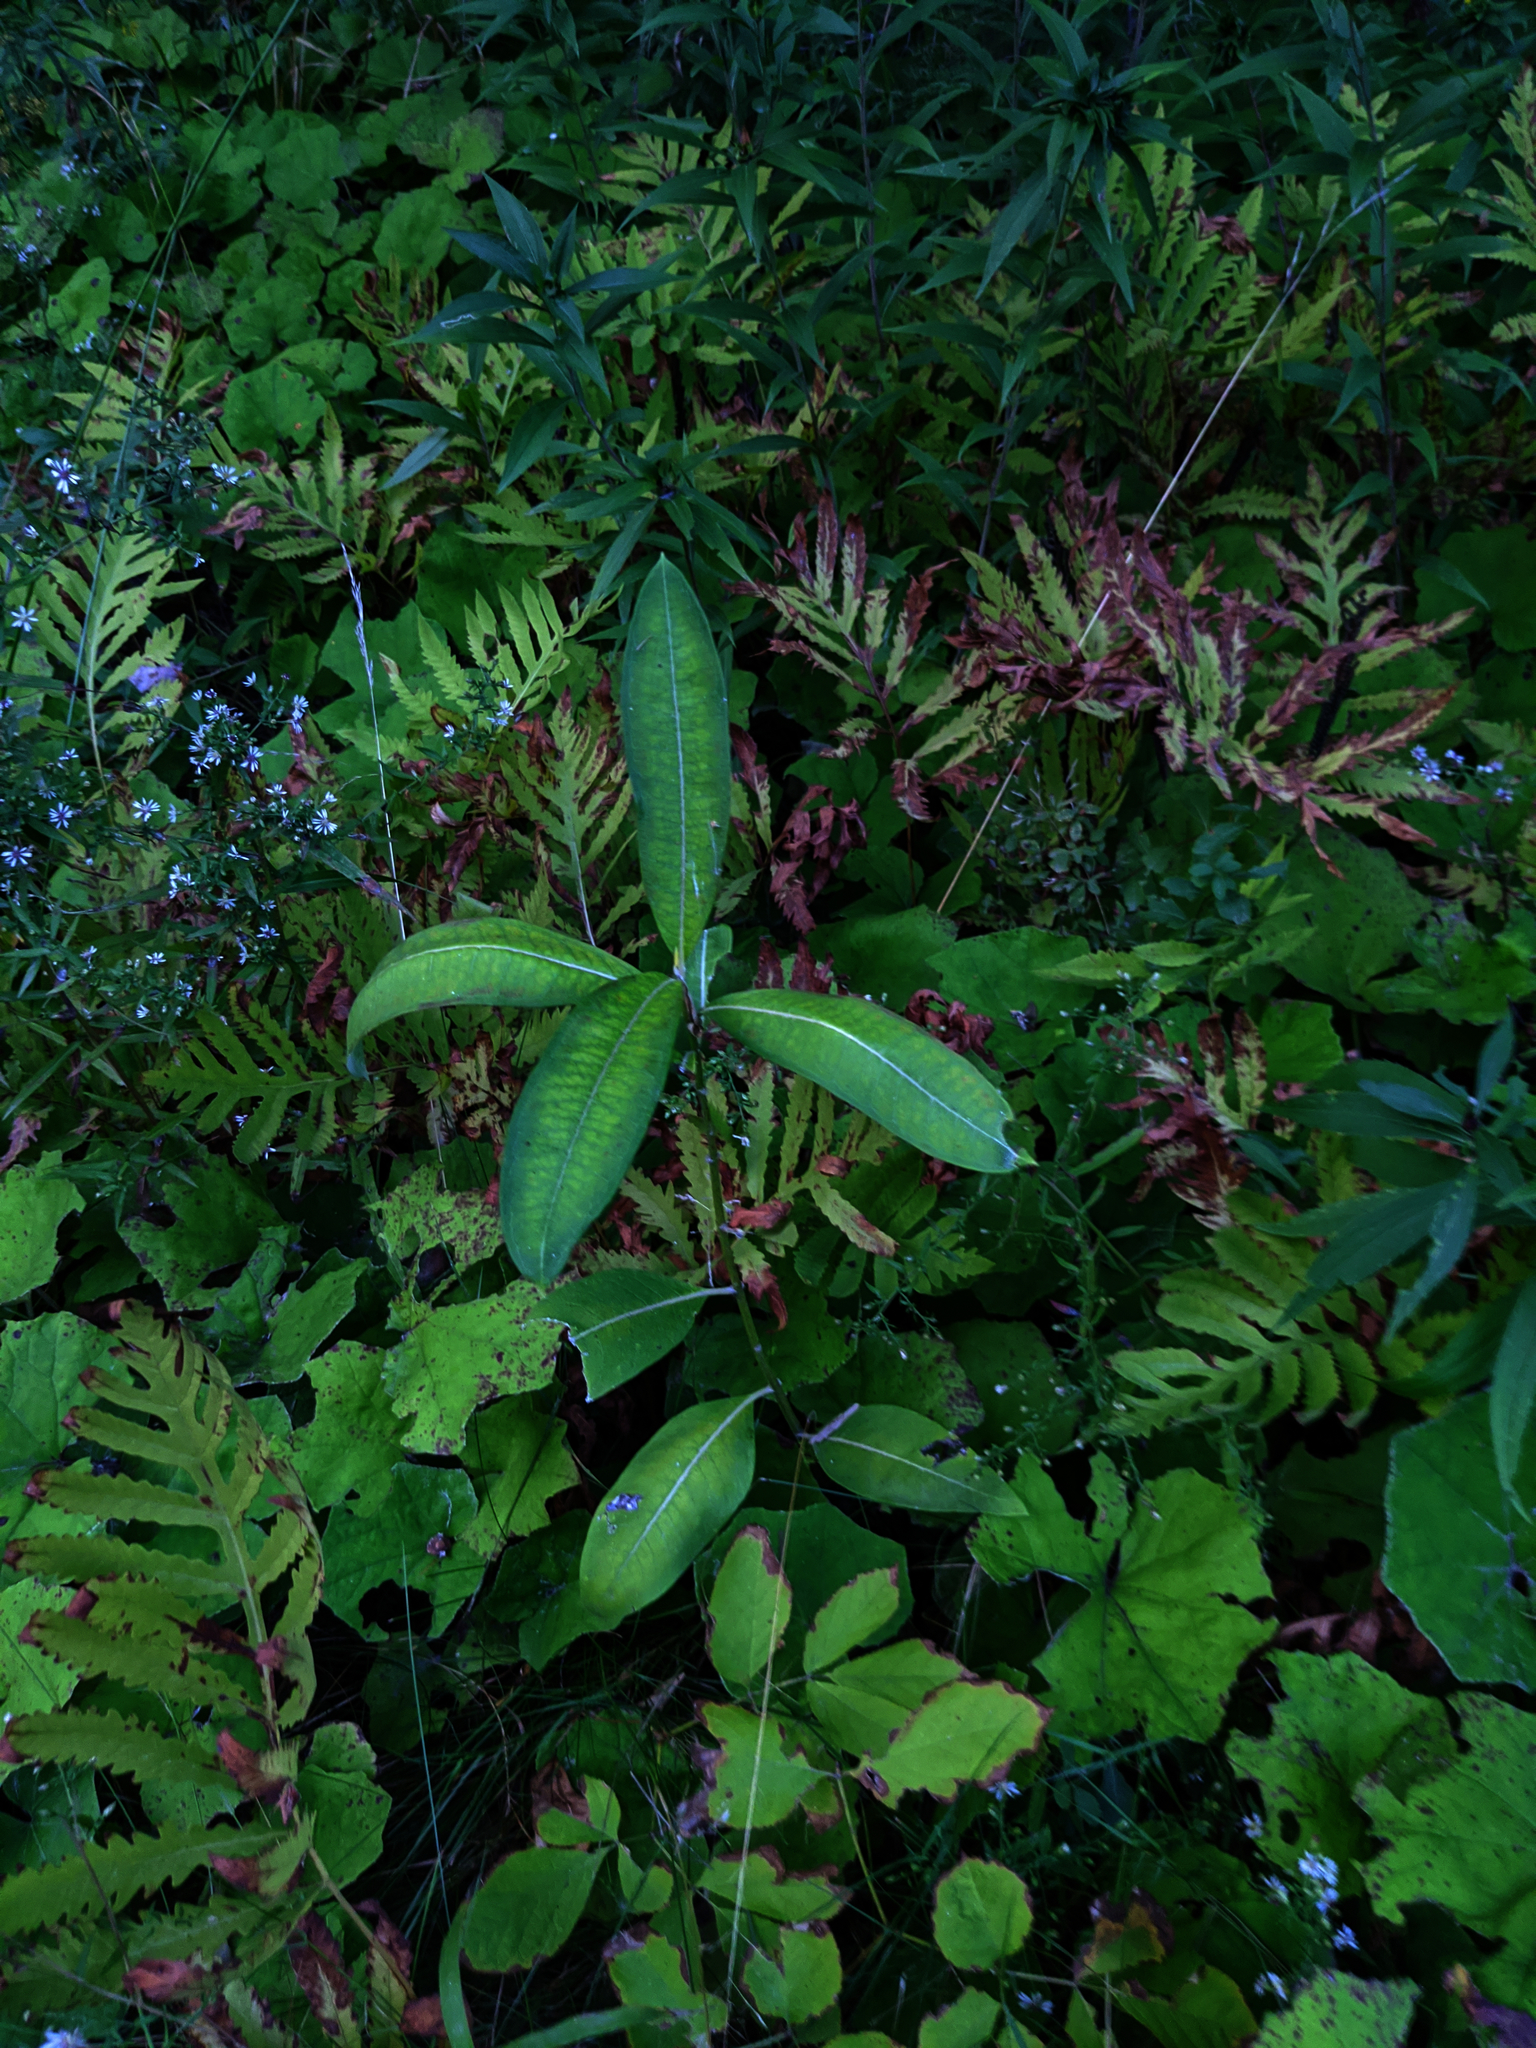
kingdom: Plantae
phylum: Tracheophyta
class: Magnoliopsida
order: Gentianales
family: Apocynaceae
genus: Asclepias
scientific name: Asclepias syriaca
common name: Common milkweed
